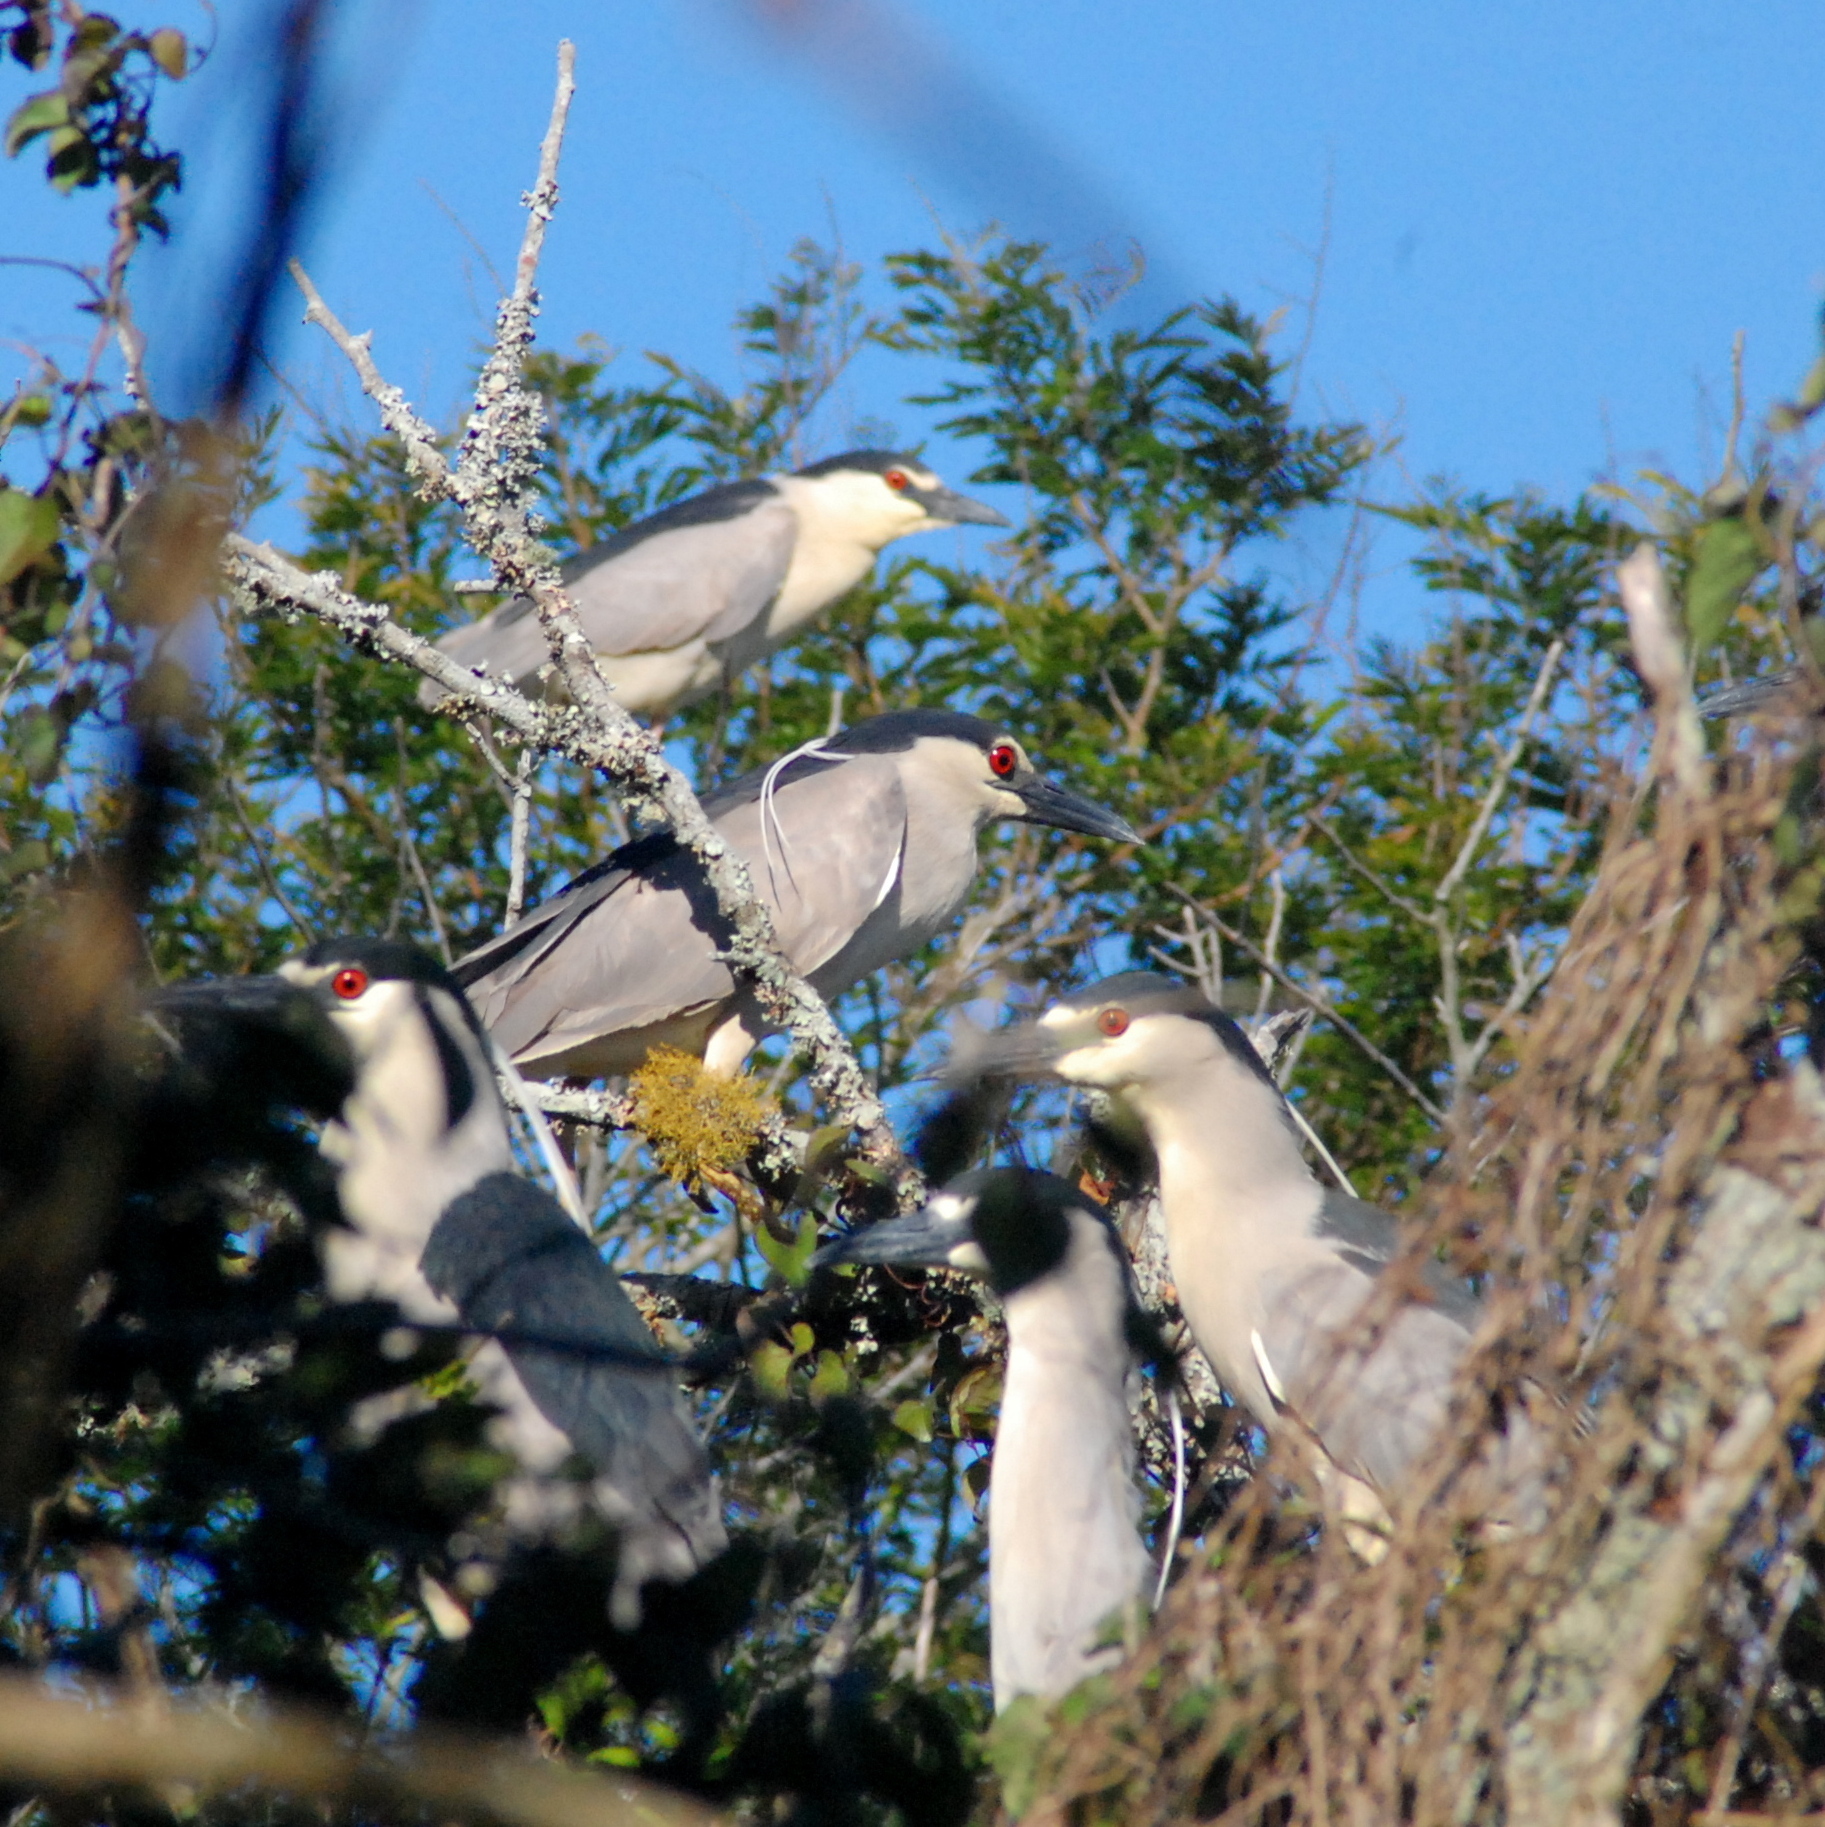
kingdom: Animalia
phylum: Chordata
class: Aves
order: Pelecaniformes
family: Ardeidae
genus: Nycticorax
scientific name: Nycticorax nycticorax
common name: Black-crowned night heron
